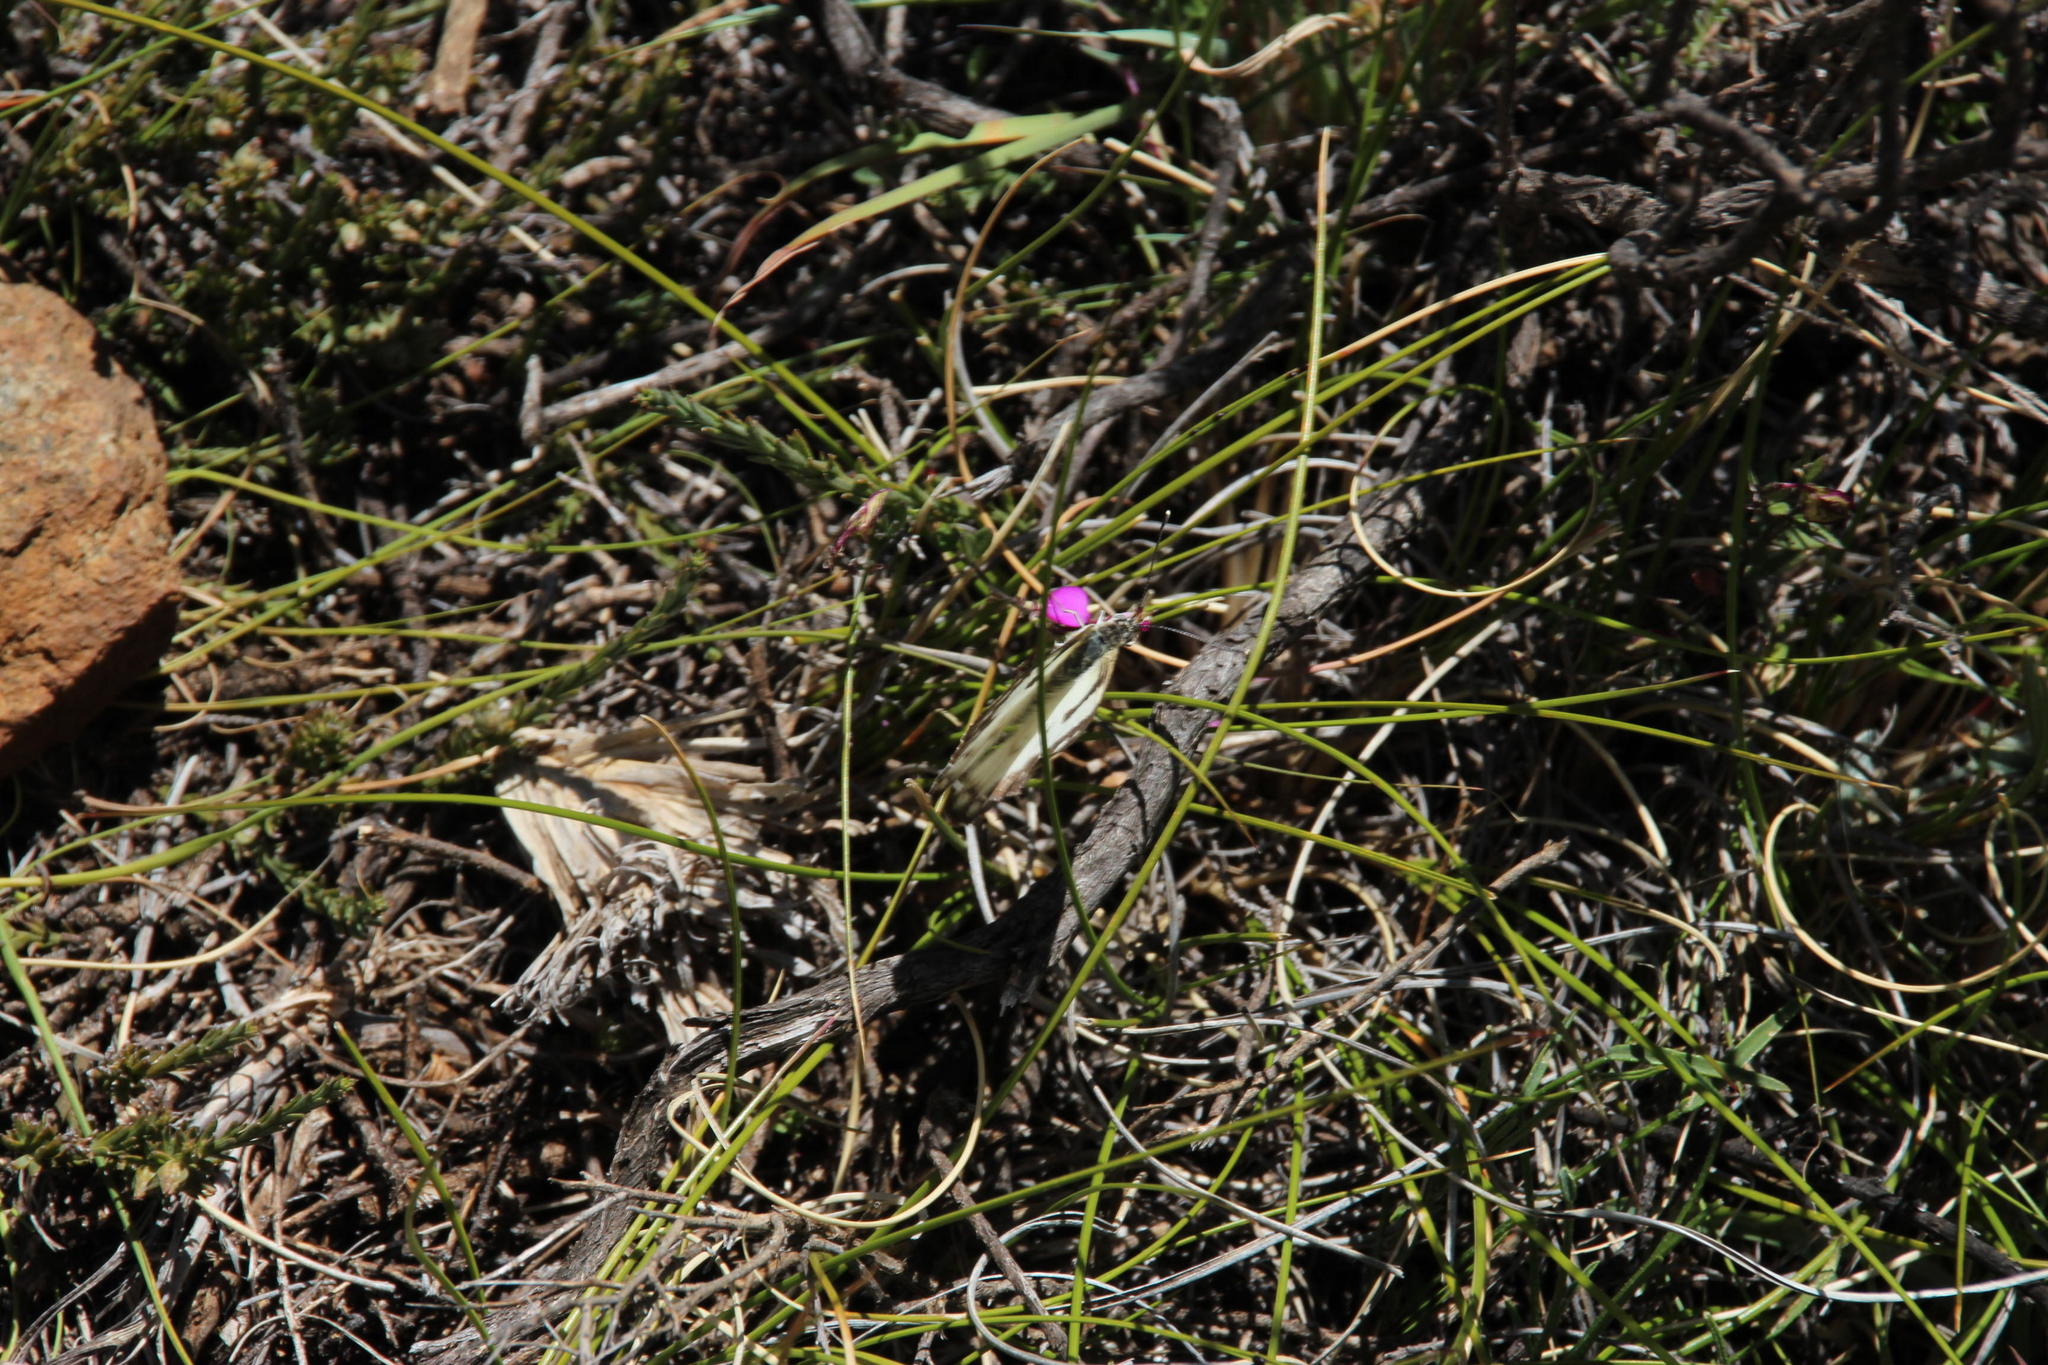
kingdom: Animalia
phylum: Arthropoda
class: Insecta
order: Lepidoptera
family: Pieridae
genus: Belenois
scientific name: Belenois aurota
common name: Brown-veined white
